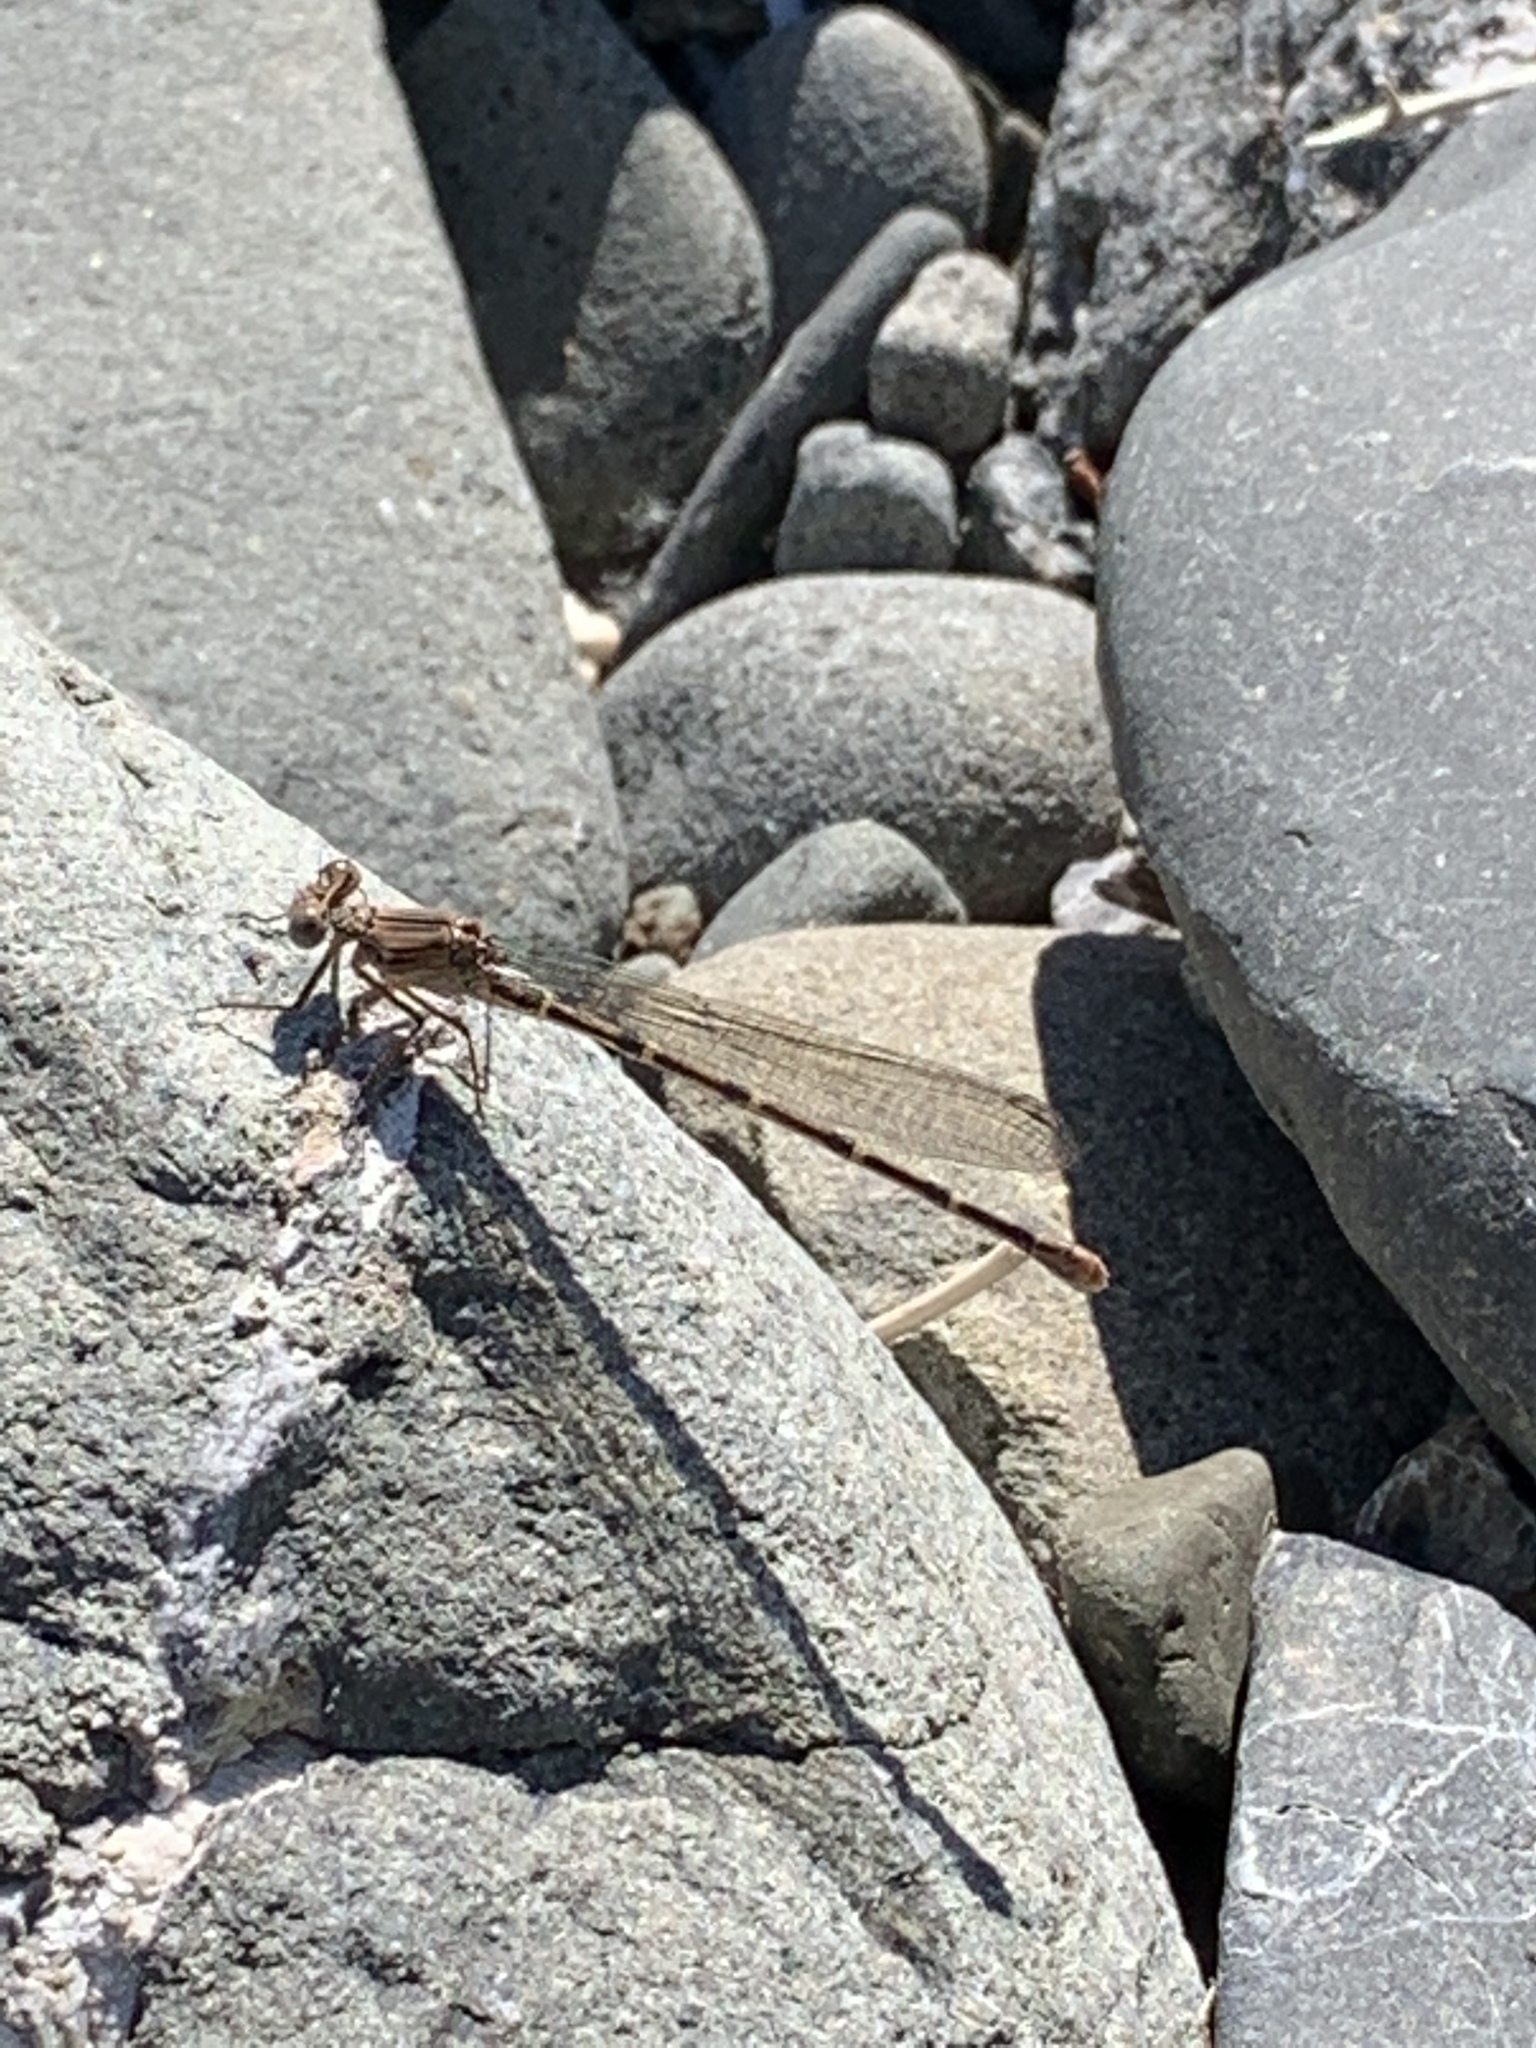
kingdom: Animalia
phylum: Arthropoda
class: Insecta
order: Odonata
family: Coenagrionidae
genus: Argia
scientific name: Argia lugens
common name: Sooty dancer
